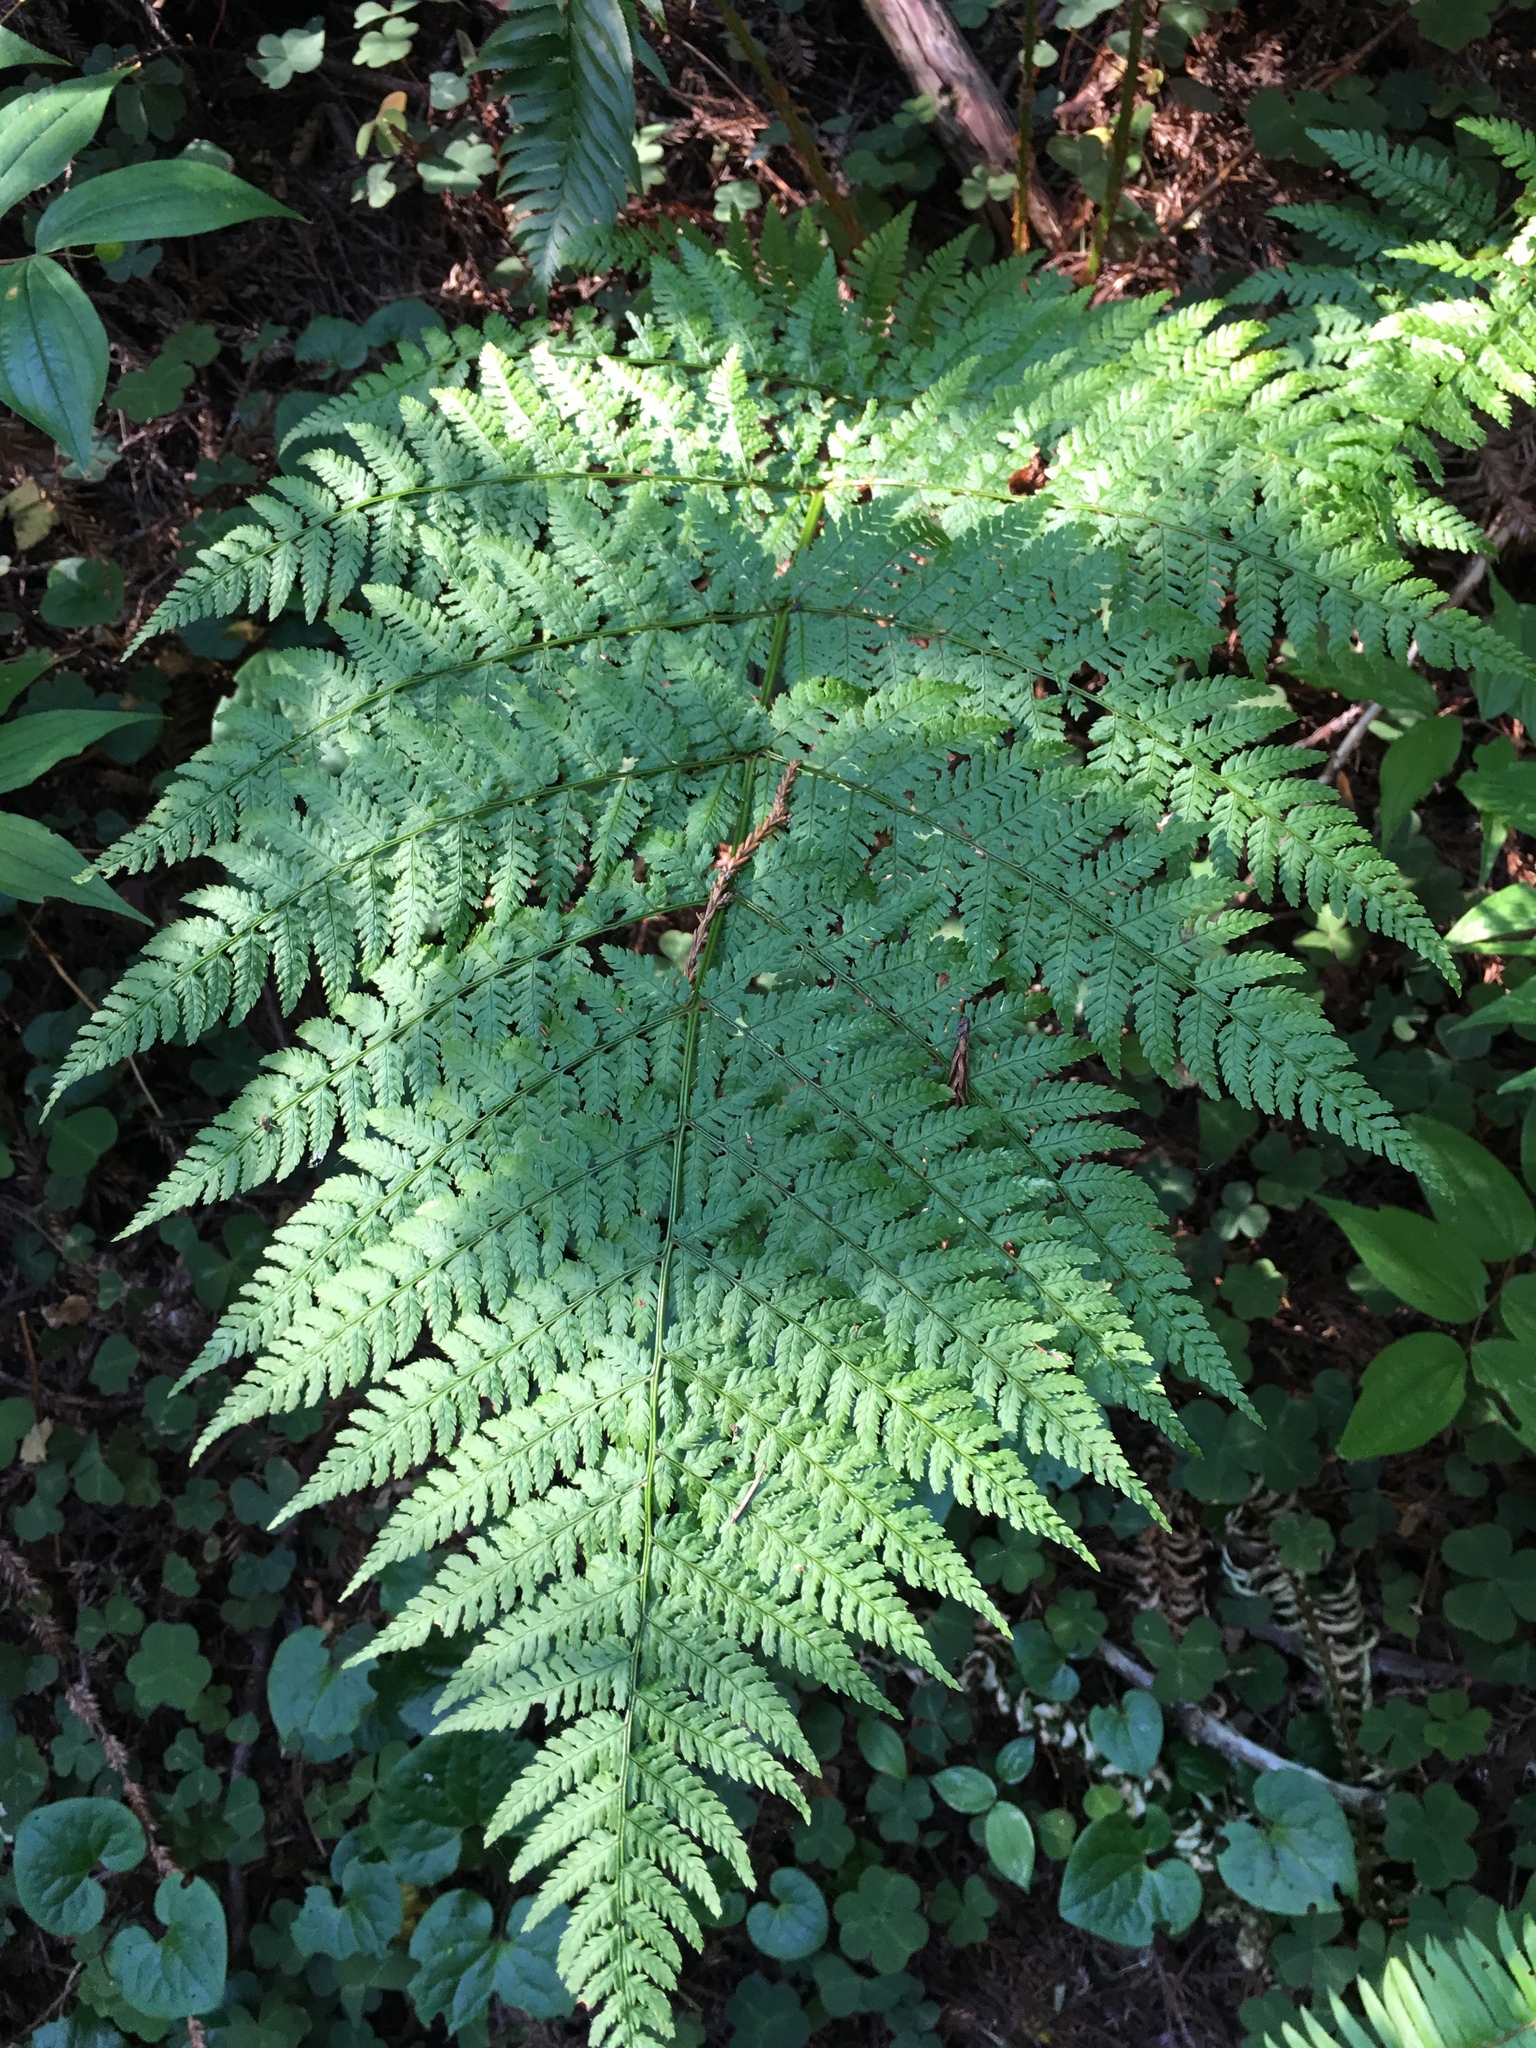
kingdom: Plantae
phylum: Tracheophyta
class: Polypodiopsida
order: Polypodiales
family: Dryopteridaceae
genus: Dryopteris
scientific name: Dryopteris expansa
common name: Northern buckler fern
